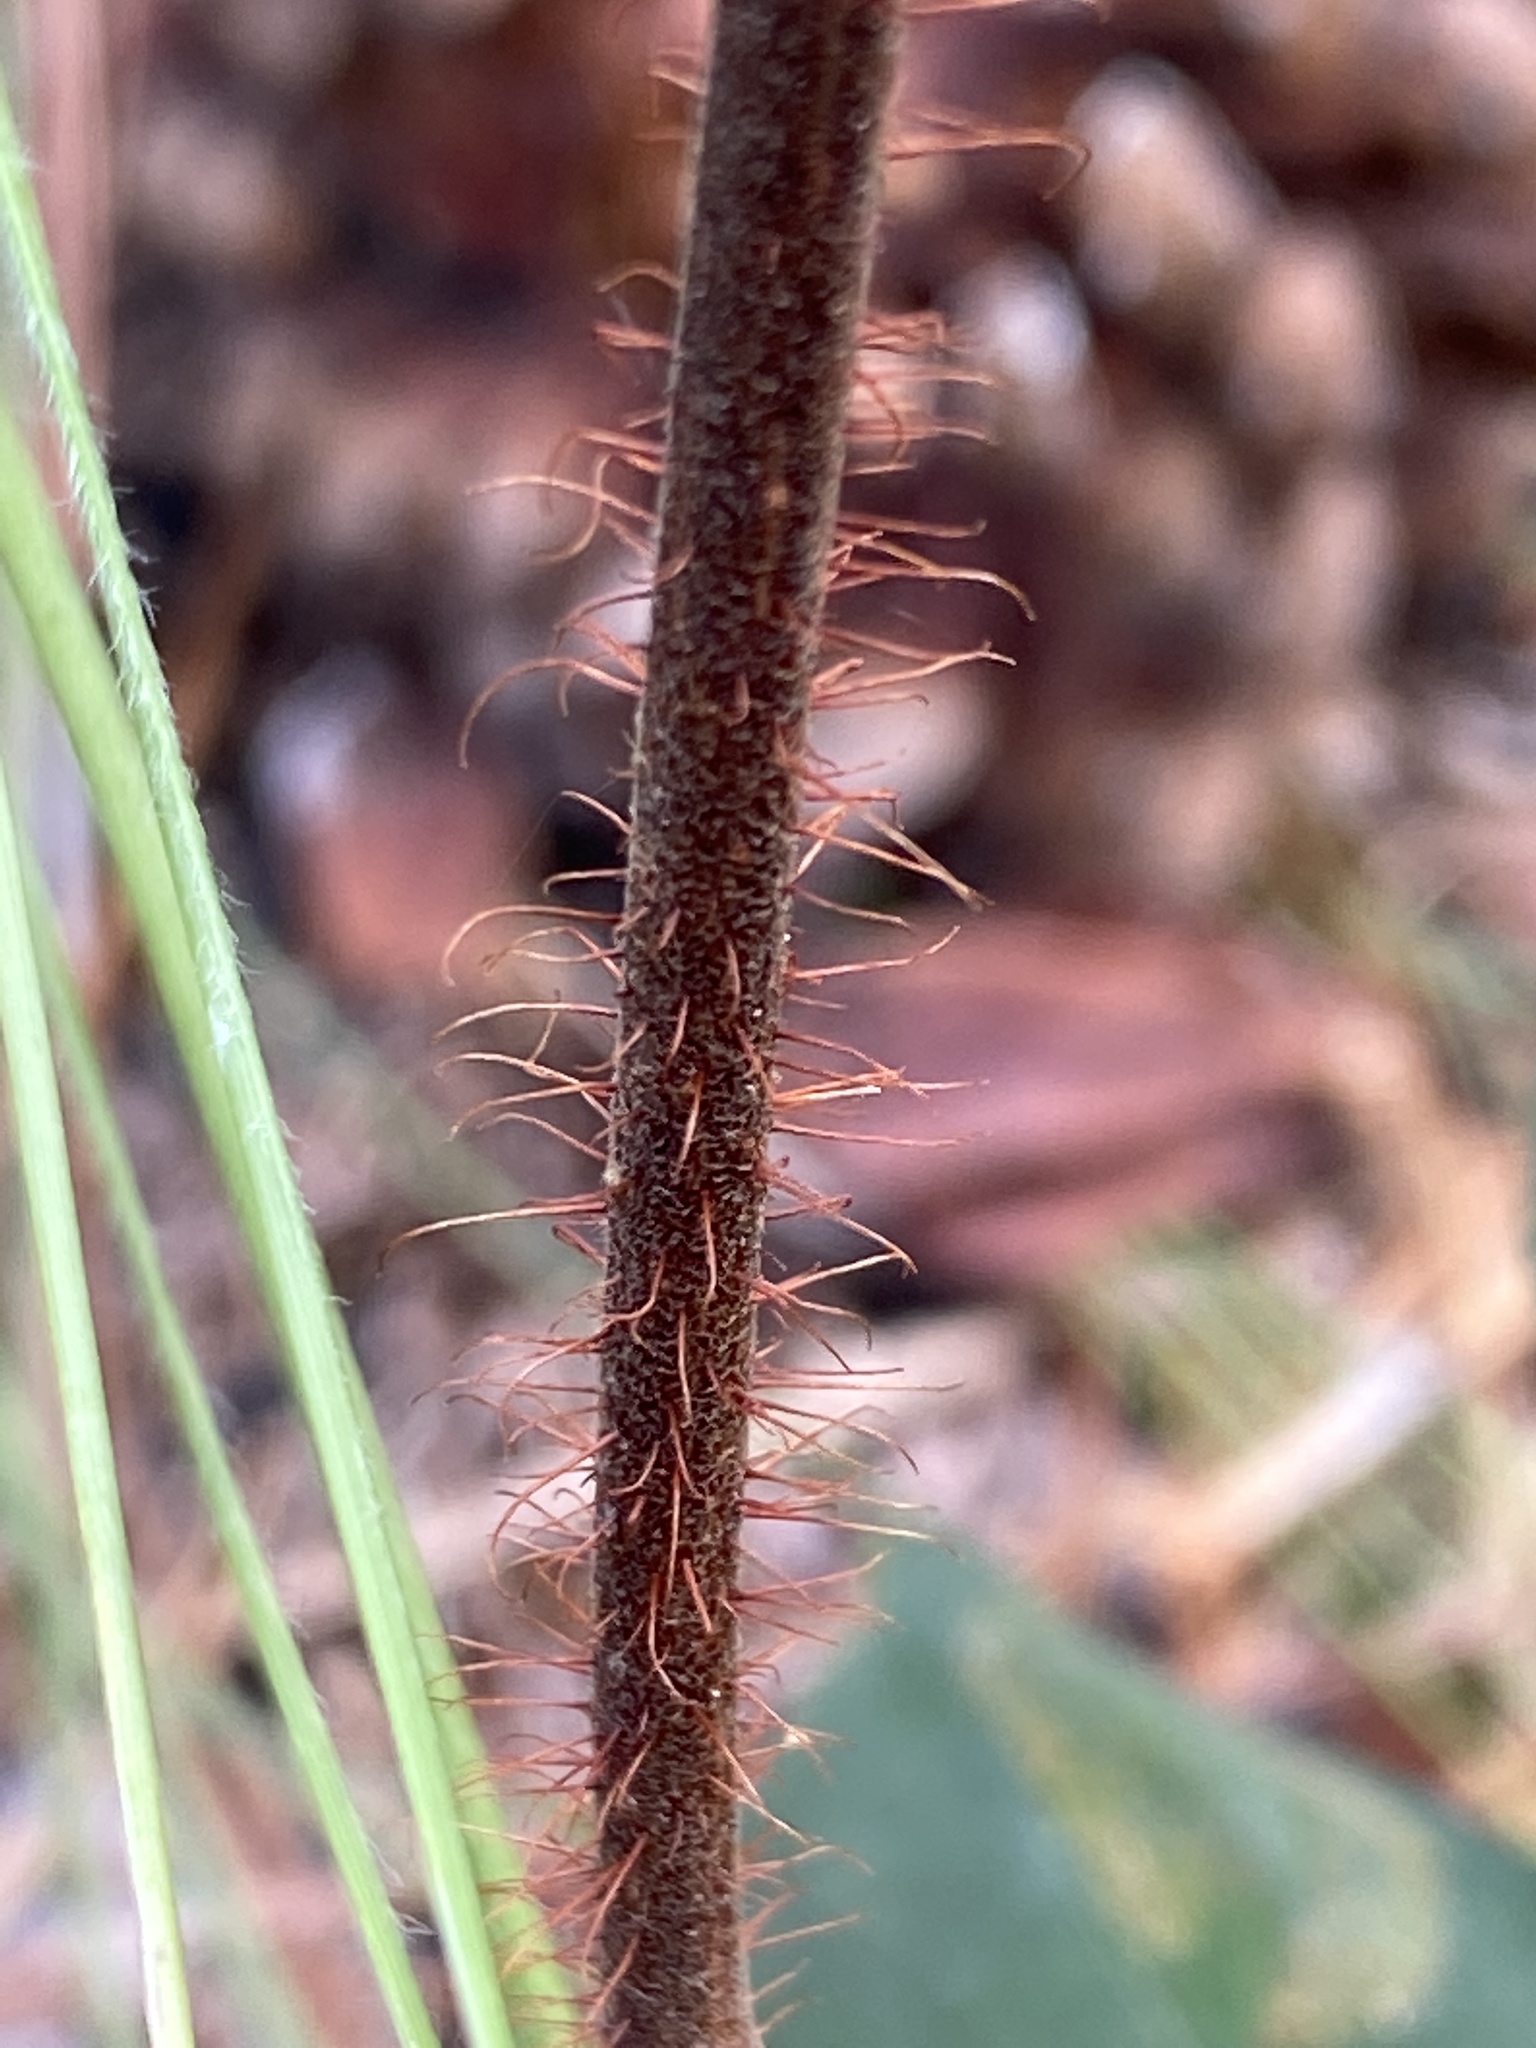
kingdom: Plantae
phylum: Tracheophyta
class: Magnoliopsida
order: Fabales
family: Fabaceae
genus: Robinia
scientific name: Robinia hispida
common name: Bristly locust
